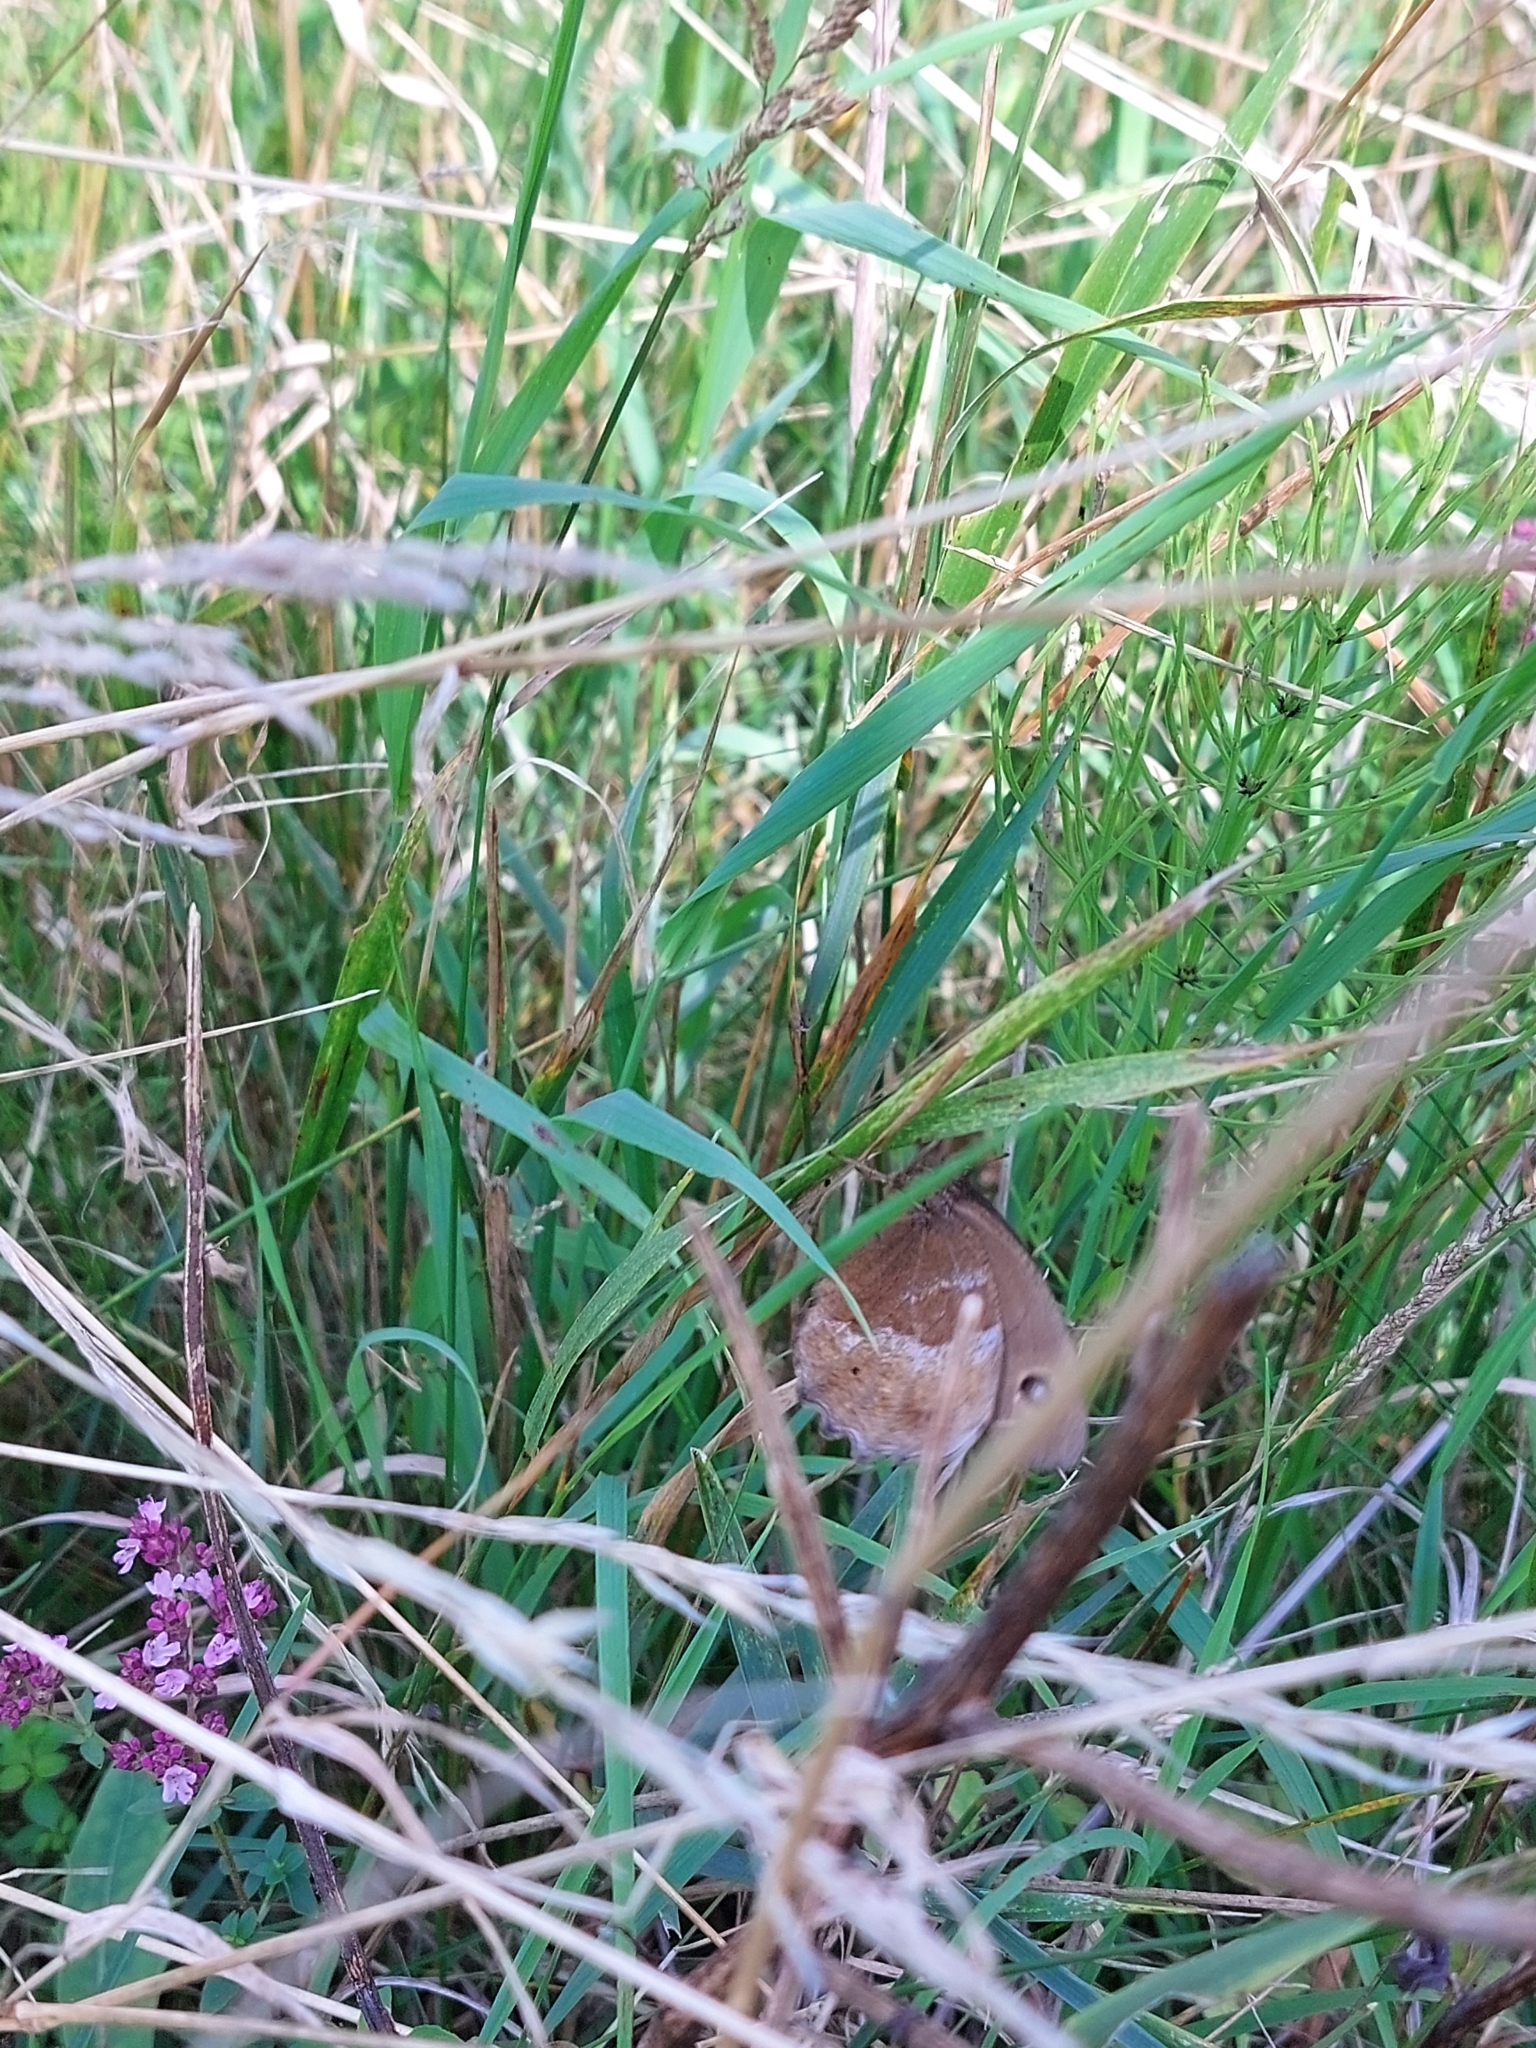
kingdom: Animalia
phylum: Arthropoda
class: Insecta
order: Lepidoptera
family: Nymphalidae
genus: Minois
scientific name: Minois dryas
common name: Dryad
